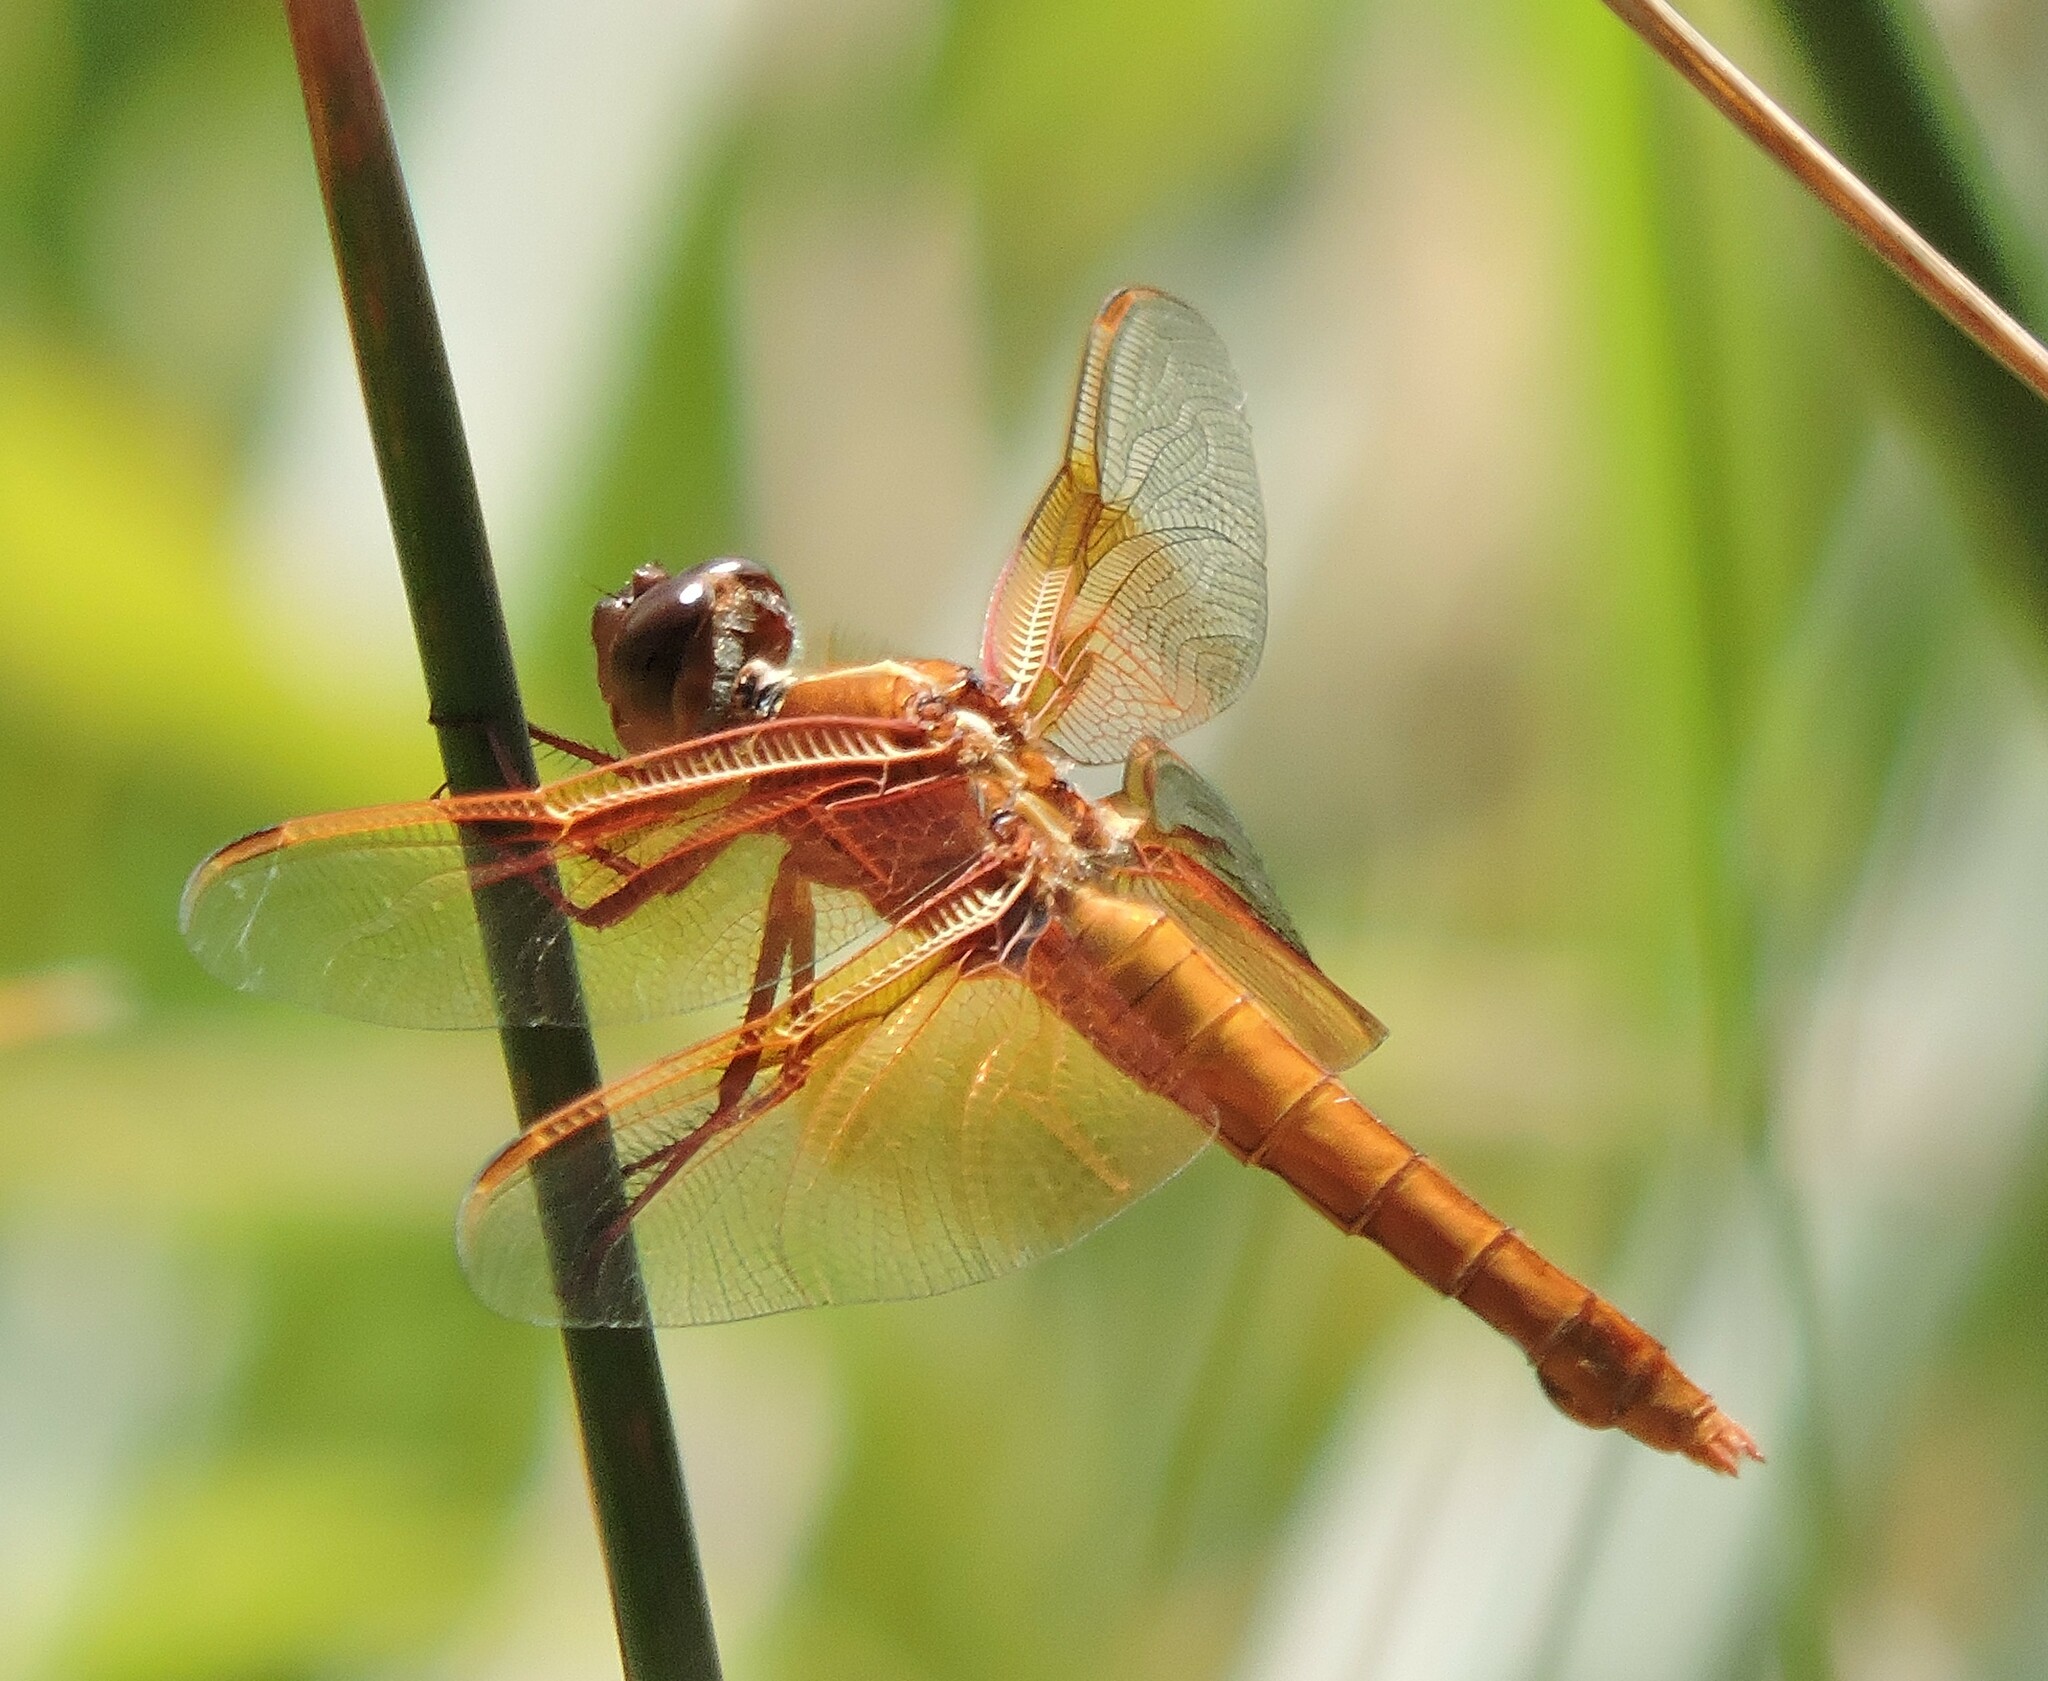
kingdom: Animalia
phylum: Arthropoda
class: Insecta
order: Odonata
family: Libellulidae
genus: Libellula
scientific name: Libellula saturata
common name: Flame skimmer
